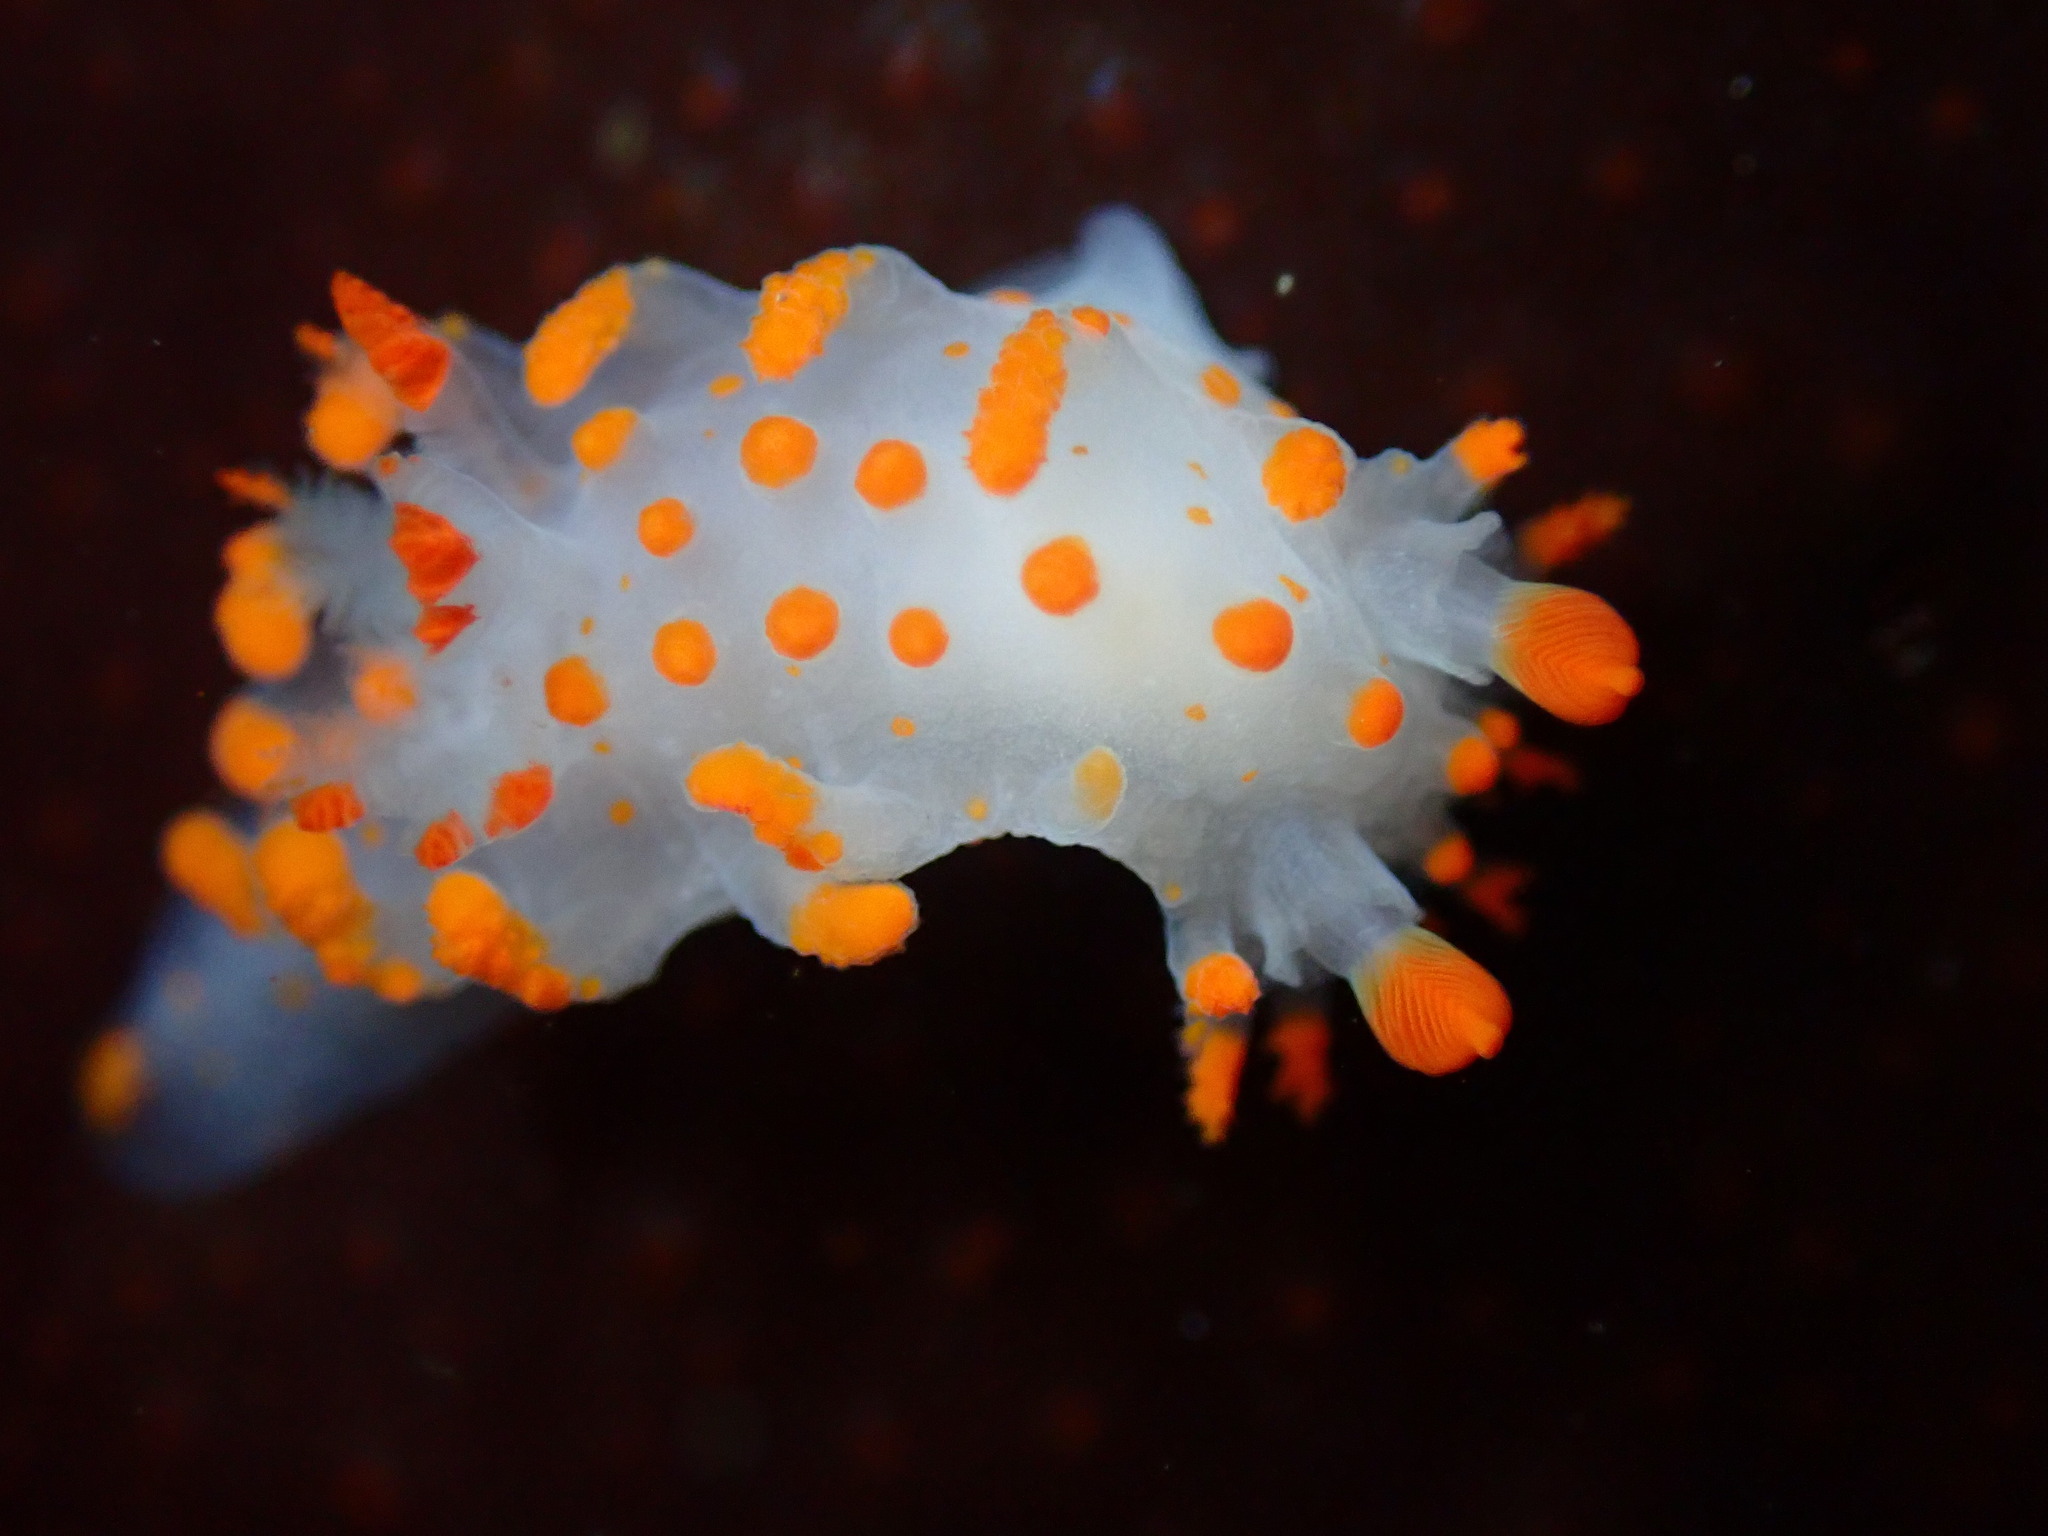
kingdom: Animalia
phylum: Mollusca
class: Gastropoda
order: Nudibranchia
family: Polyceridae
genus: Triopha
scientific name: Triopha catalinae
